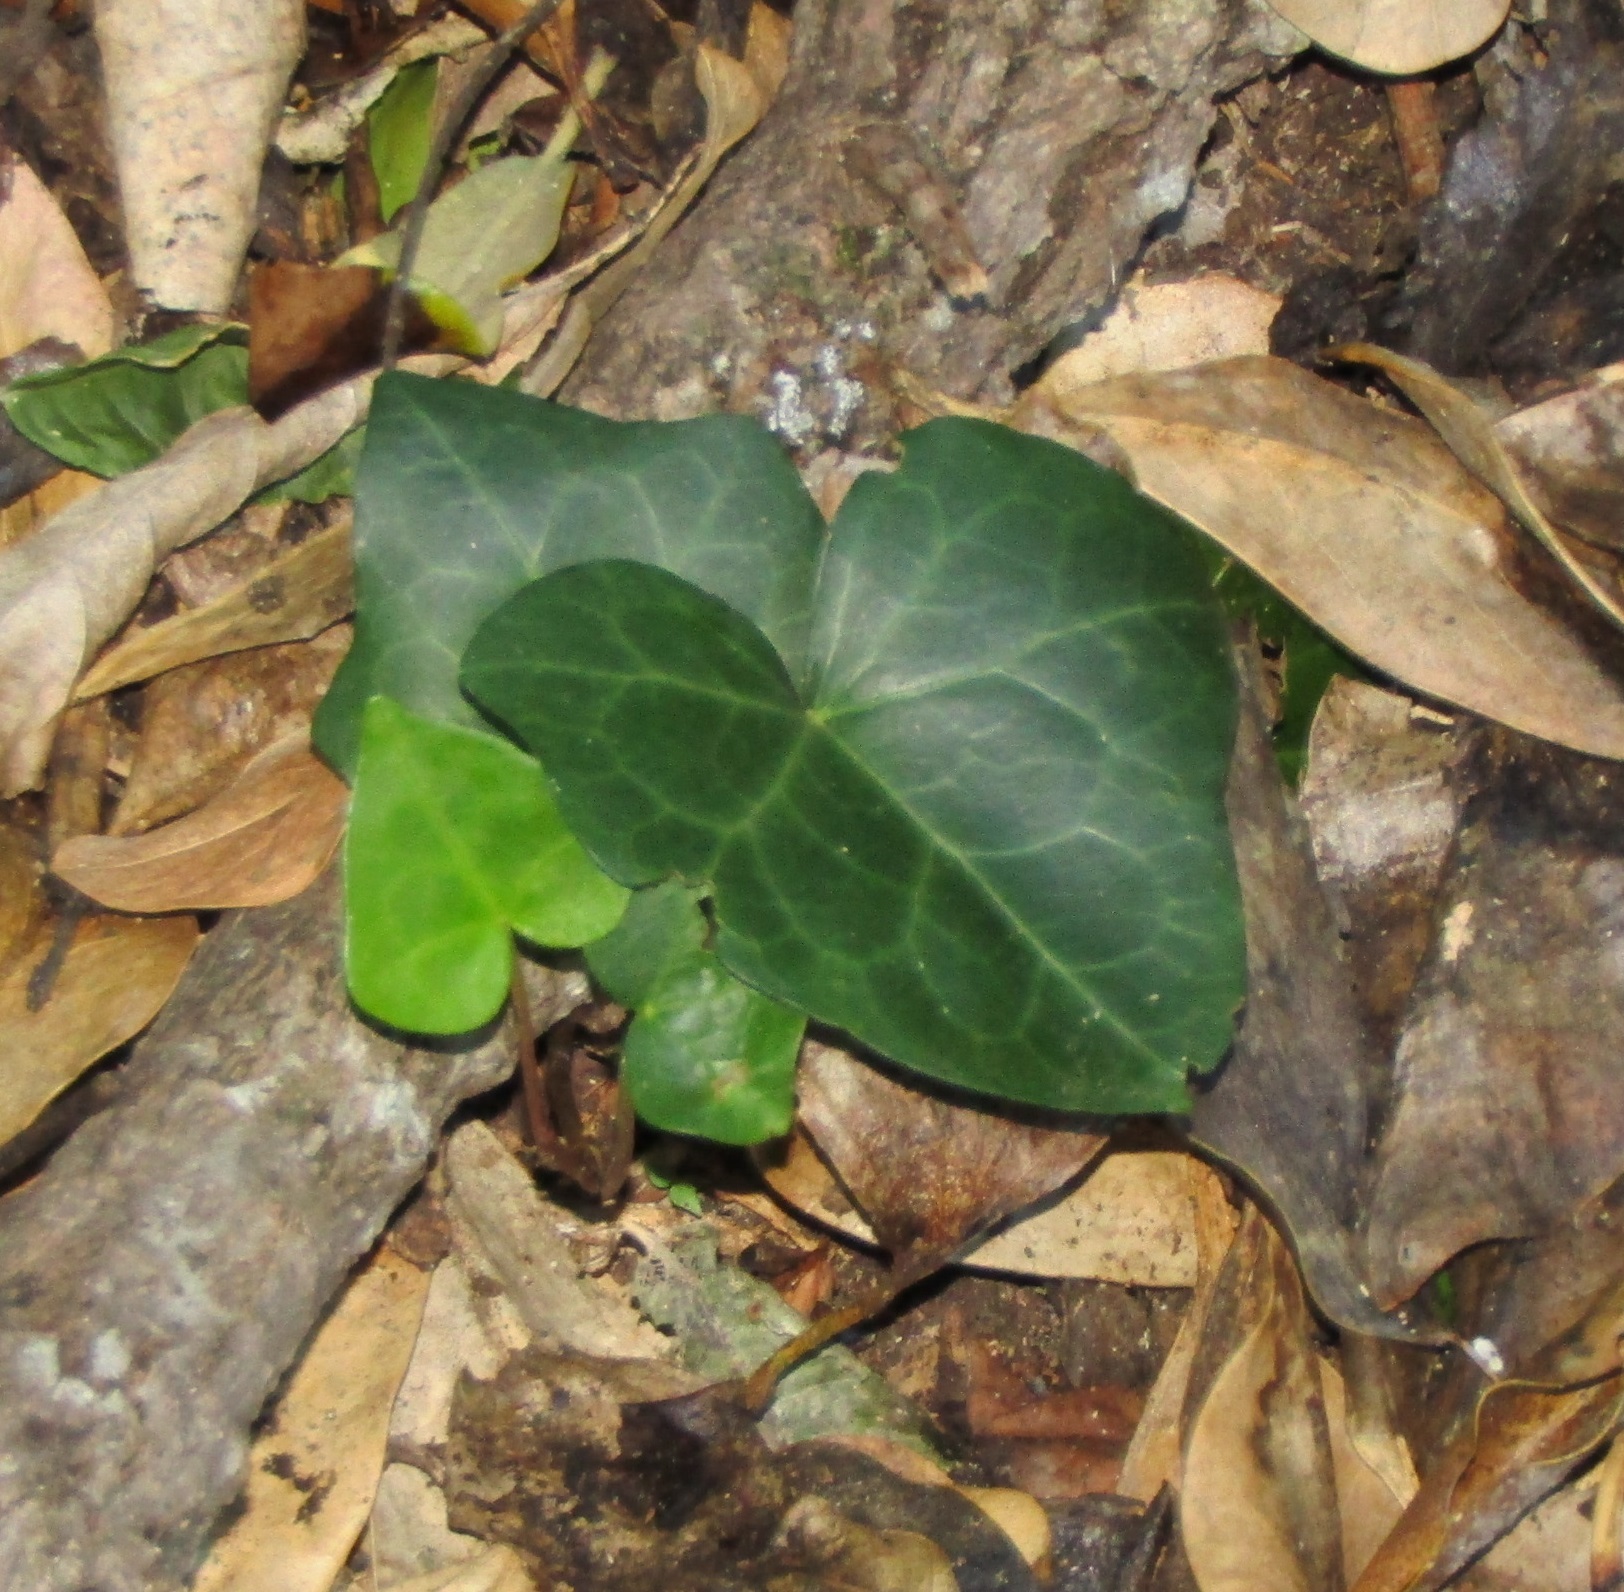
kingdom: Plantae
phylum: Tracheophyta
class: Magnoliopsida
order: Apiales
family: Araliaceae
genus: Hedera
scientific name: Hedera helix
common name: Ivy
